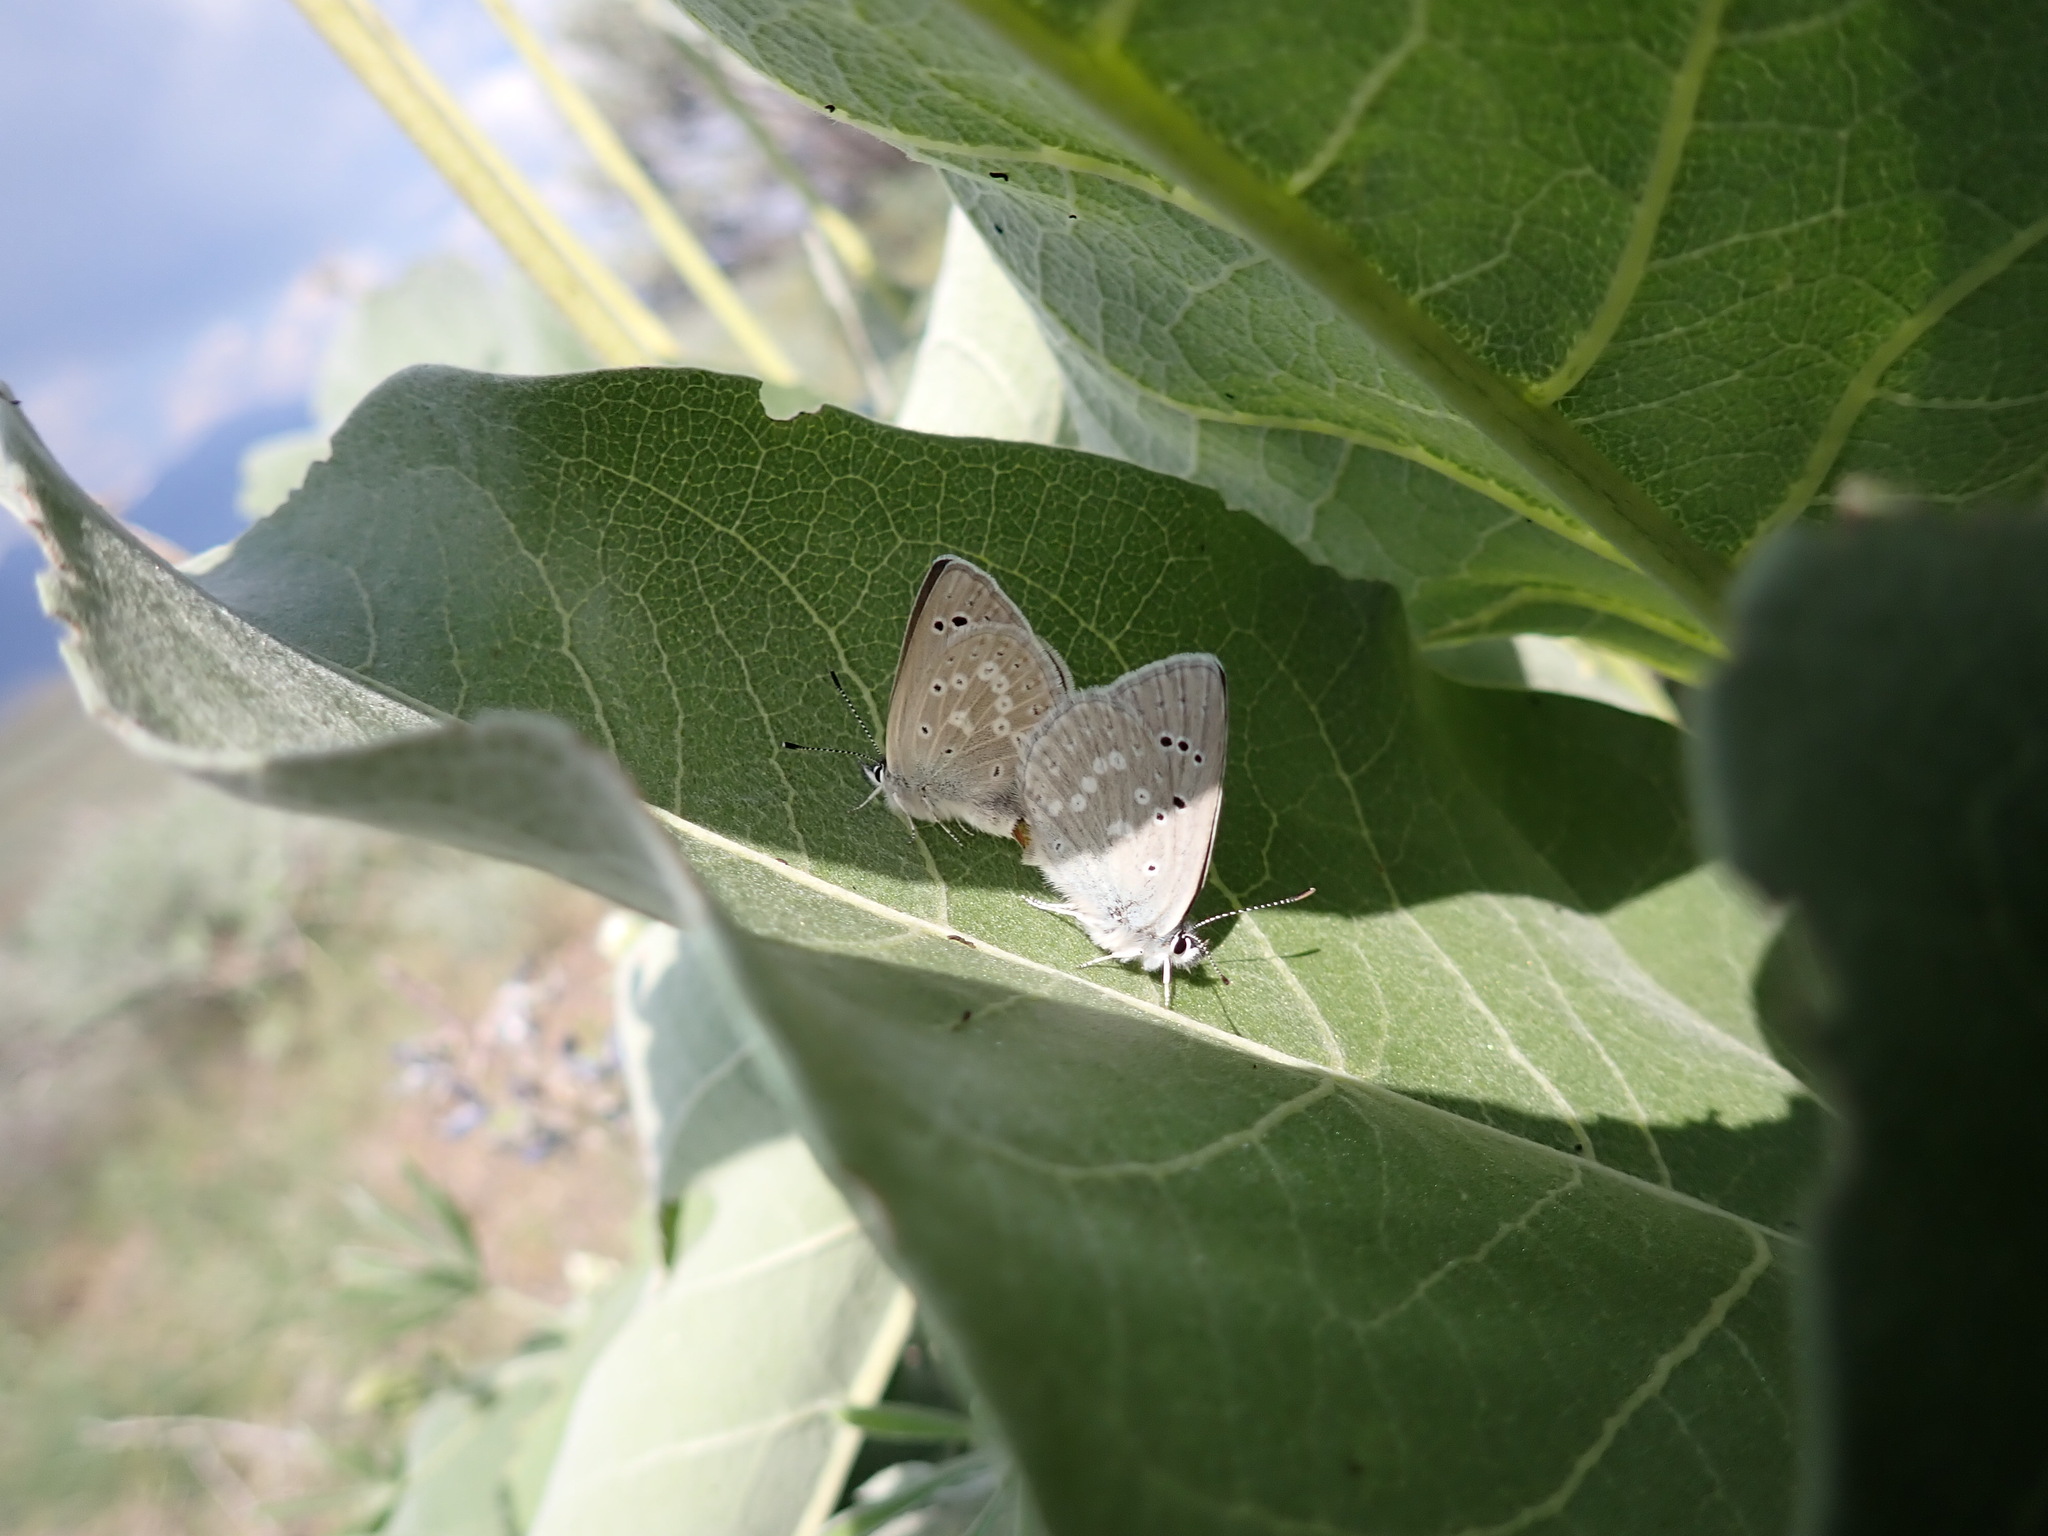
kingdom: Animalia
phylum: Arthropoda
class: Insecta
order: Lepidoptera
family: Lycaenidae
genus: Icaricia
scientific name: Icaricia icarioides
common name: Boisduval's blue
